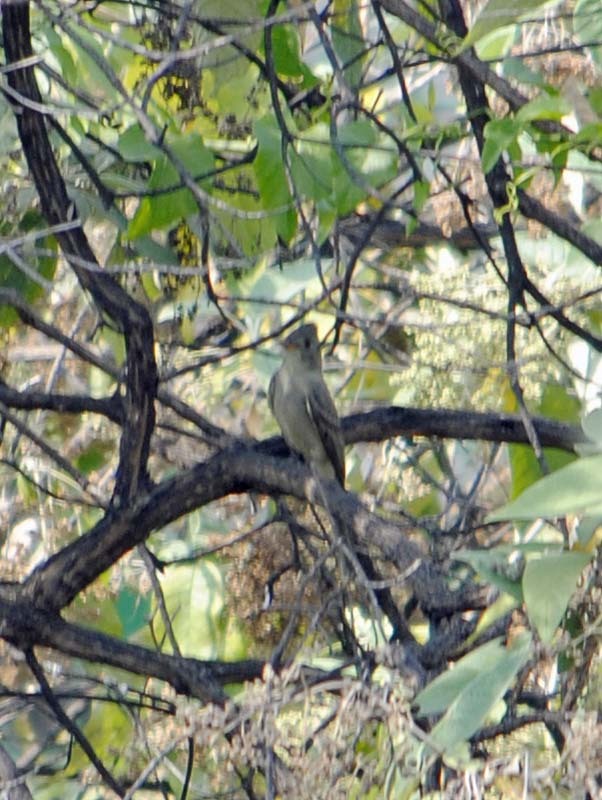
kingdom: Animalia
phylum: Chordata
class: Aves
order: Passeriformes
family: Tyrannidae
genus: Contopus
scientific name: Contopus pertinax
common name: Greater pewee
